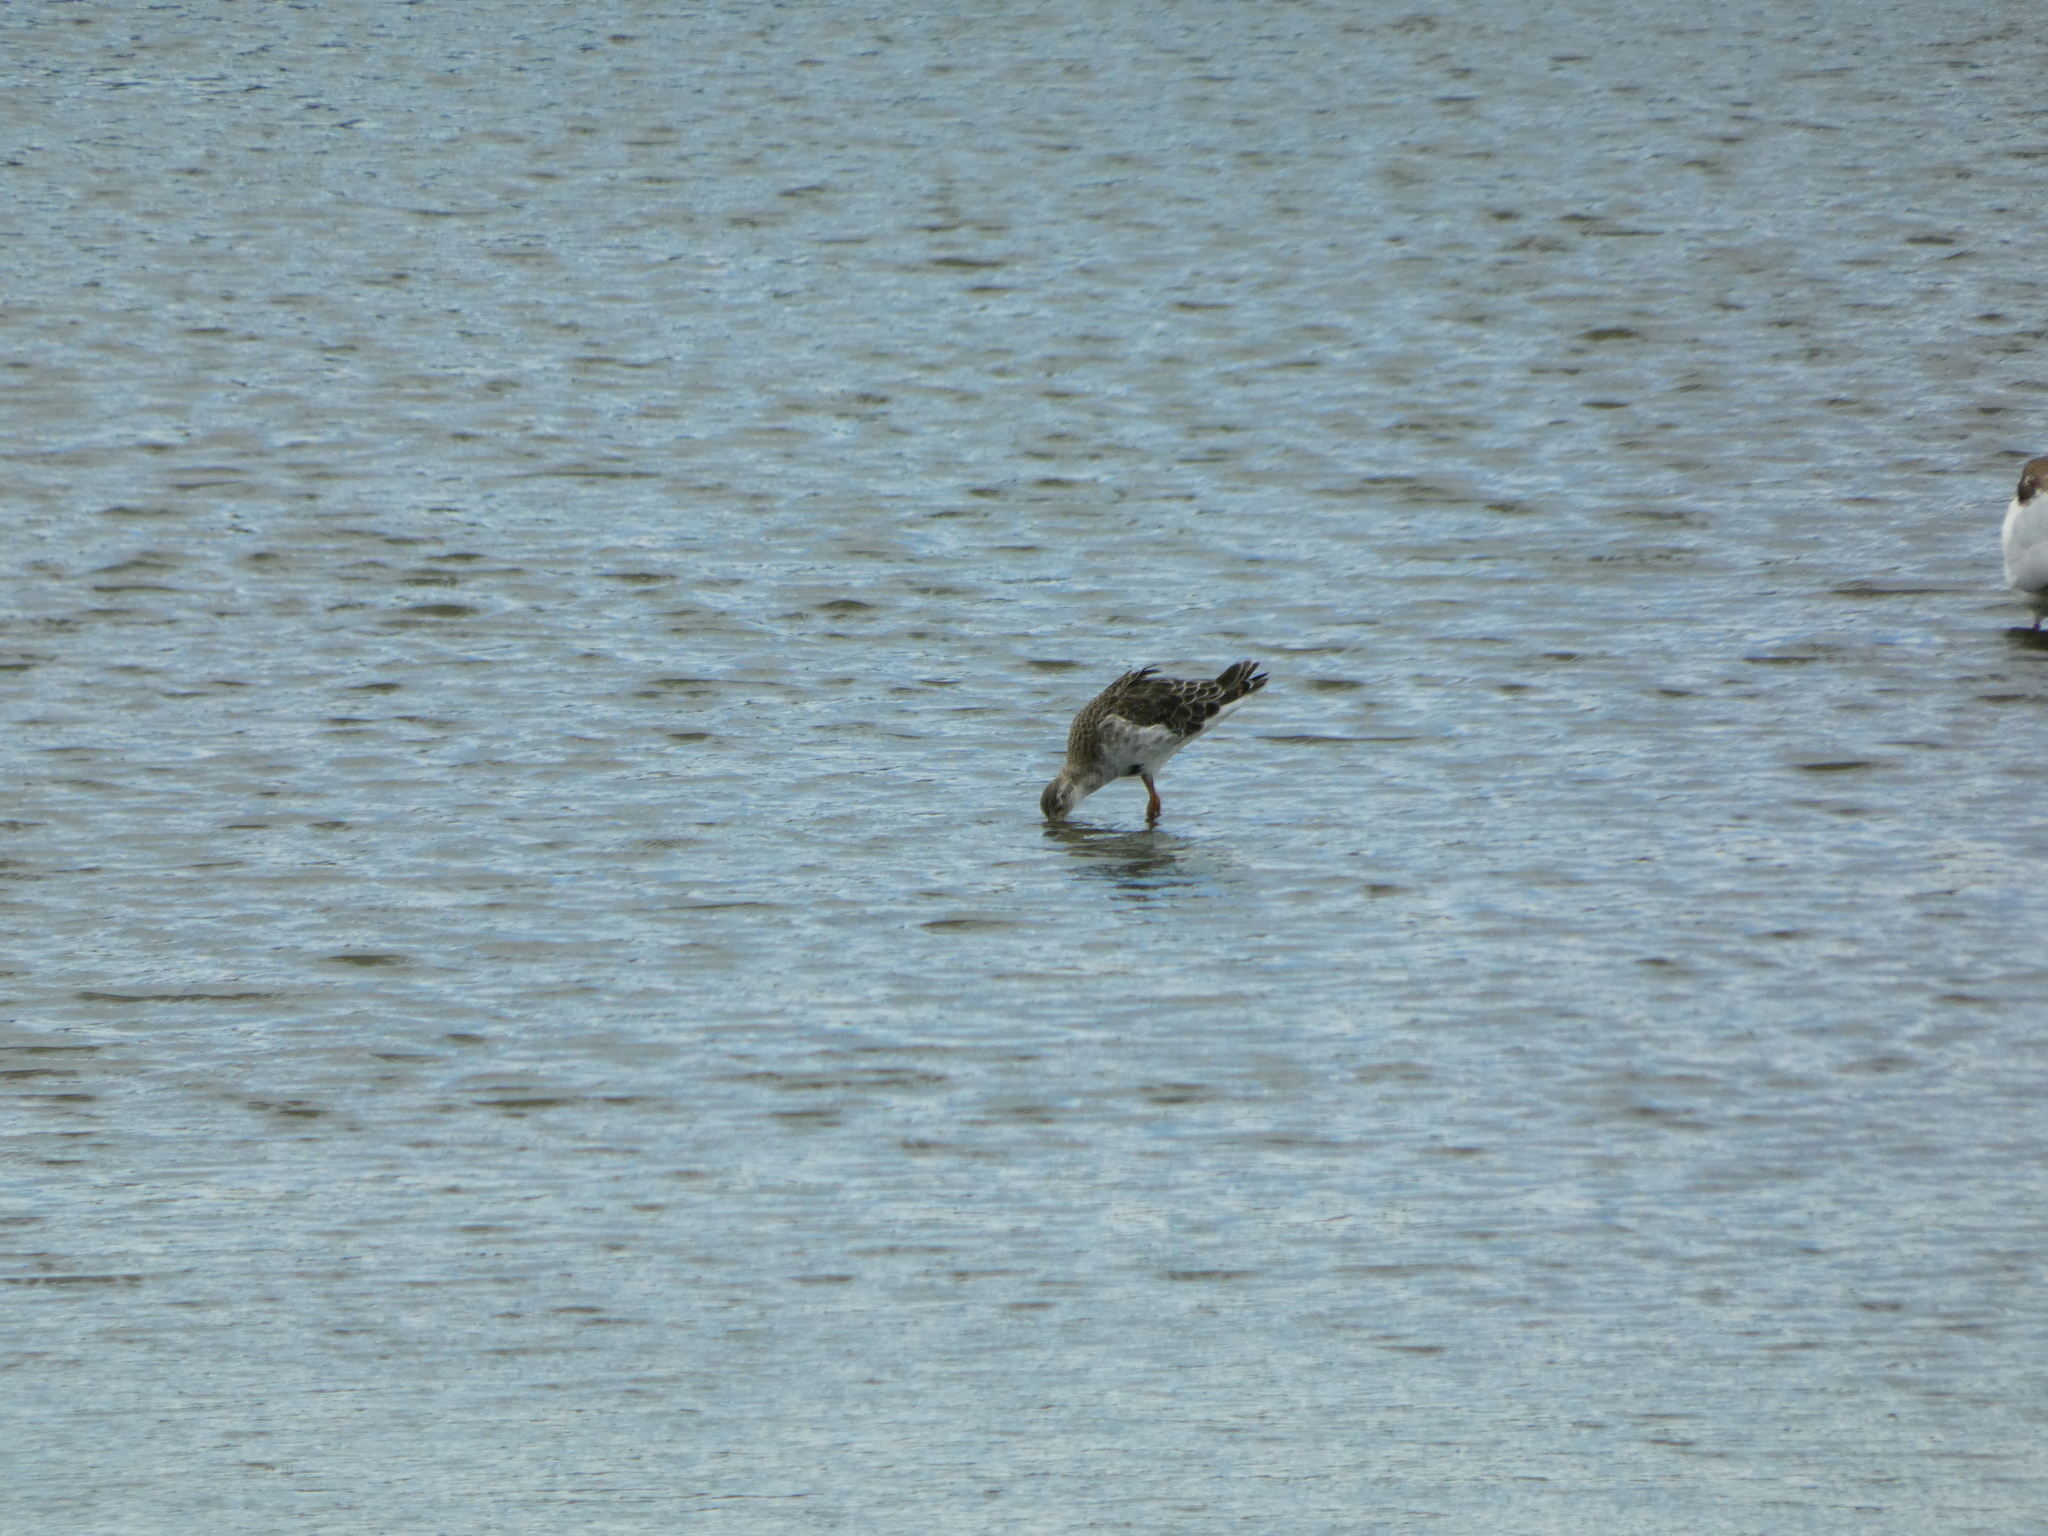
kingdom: Animalia
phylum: Chordata
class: Aves
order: Charadriiformes
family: Scolopacidae
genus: Calidris
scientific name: Calidris pugnax
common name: Ruff
